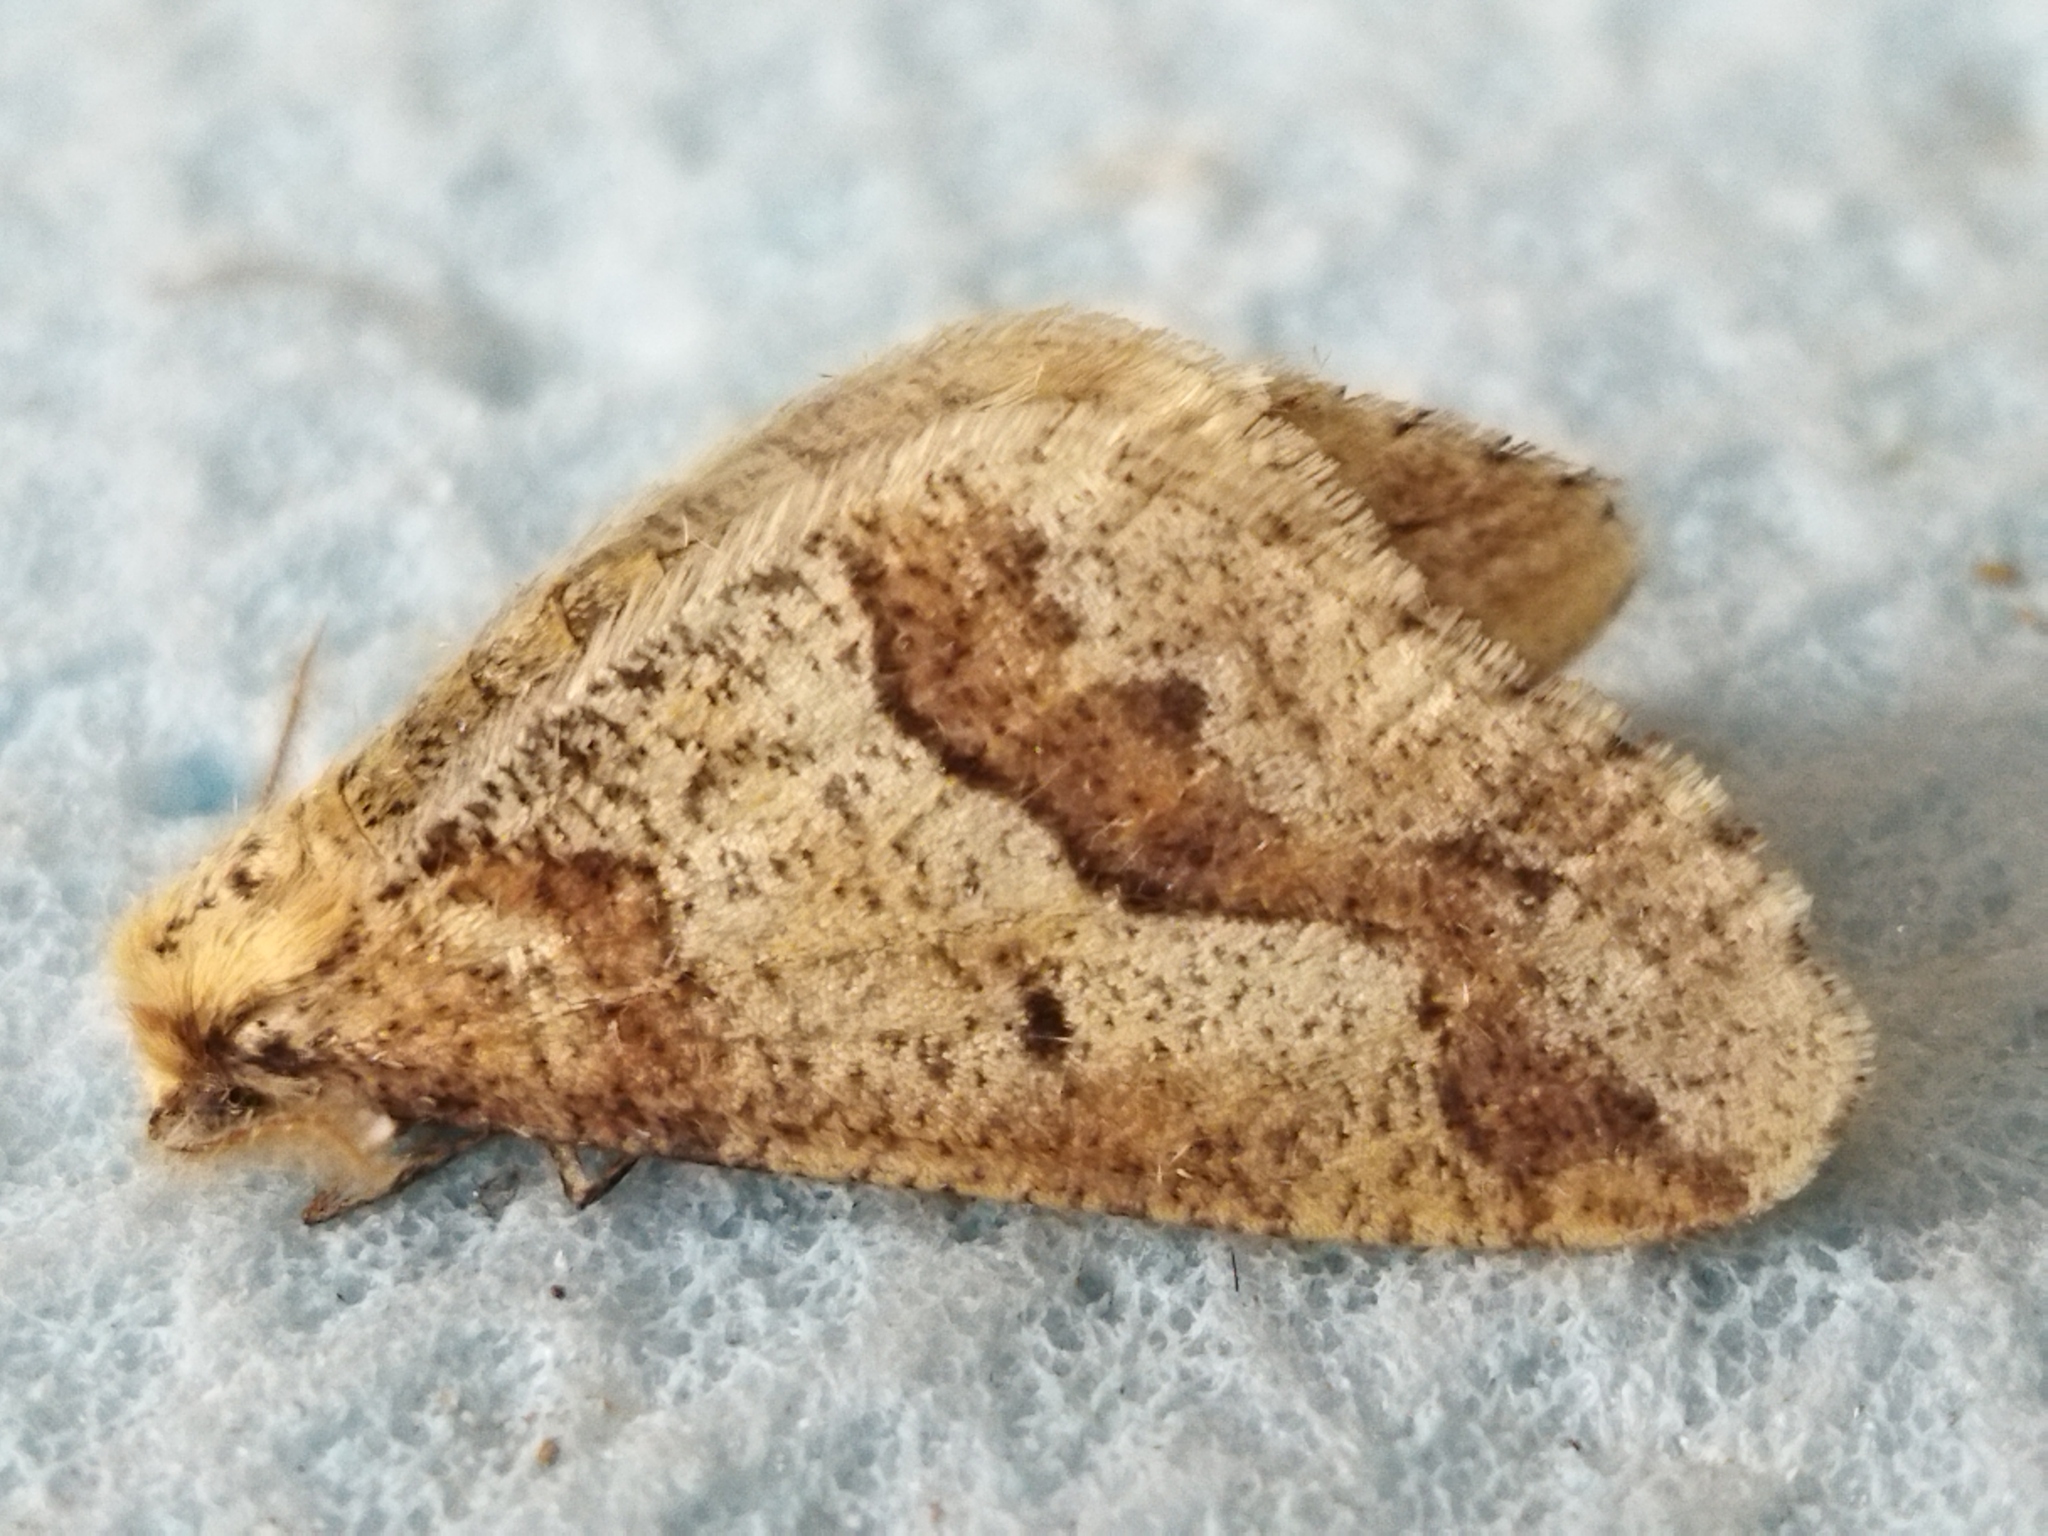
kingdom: Animalia
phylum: Arthropoda
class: Insecta
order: Lepidoptera
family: Geometridae
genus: Erannis
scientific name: Erannis defoliaria
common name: Mottled umber
